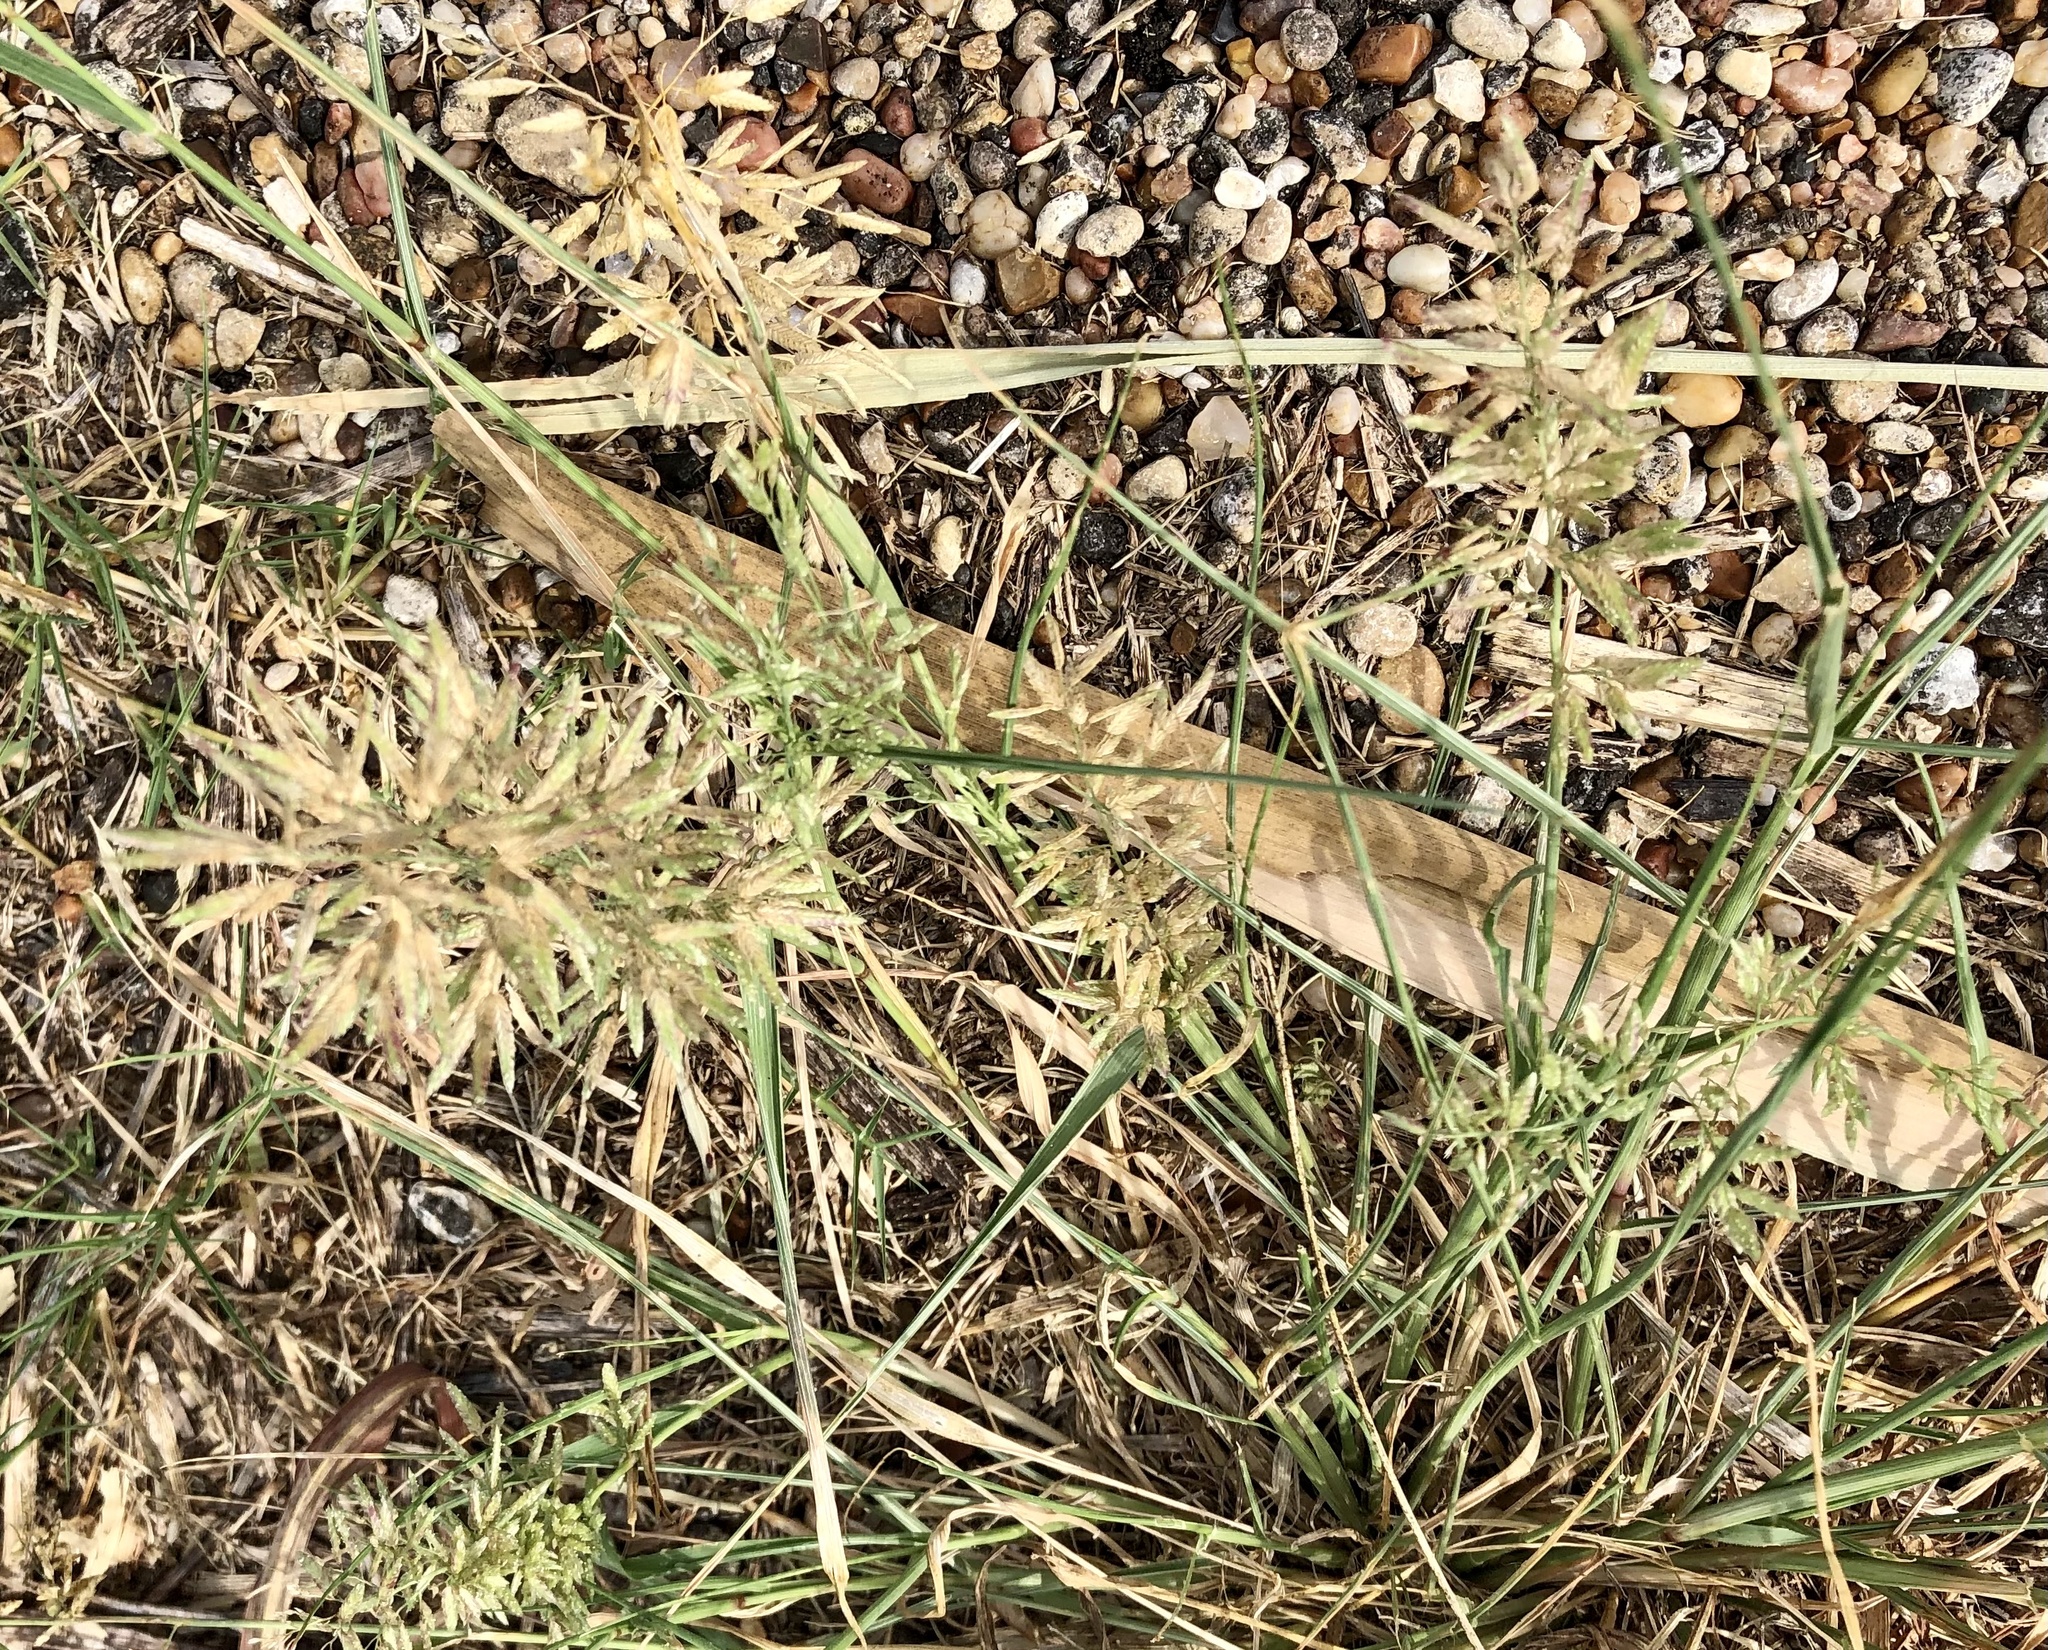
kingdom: Plantae
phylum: Tracheophyta
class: Liliopsida
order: Poales
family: Poaceae
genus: Eragrostis
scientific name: Eragrostis cilianensis
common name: Stinkgrass
